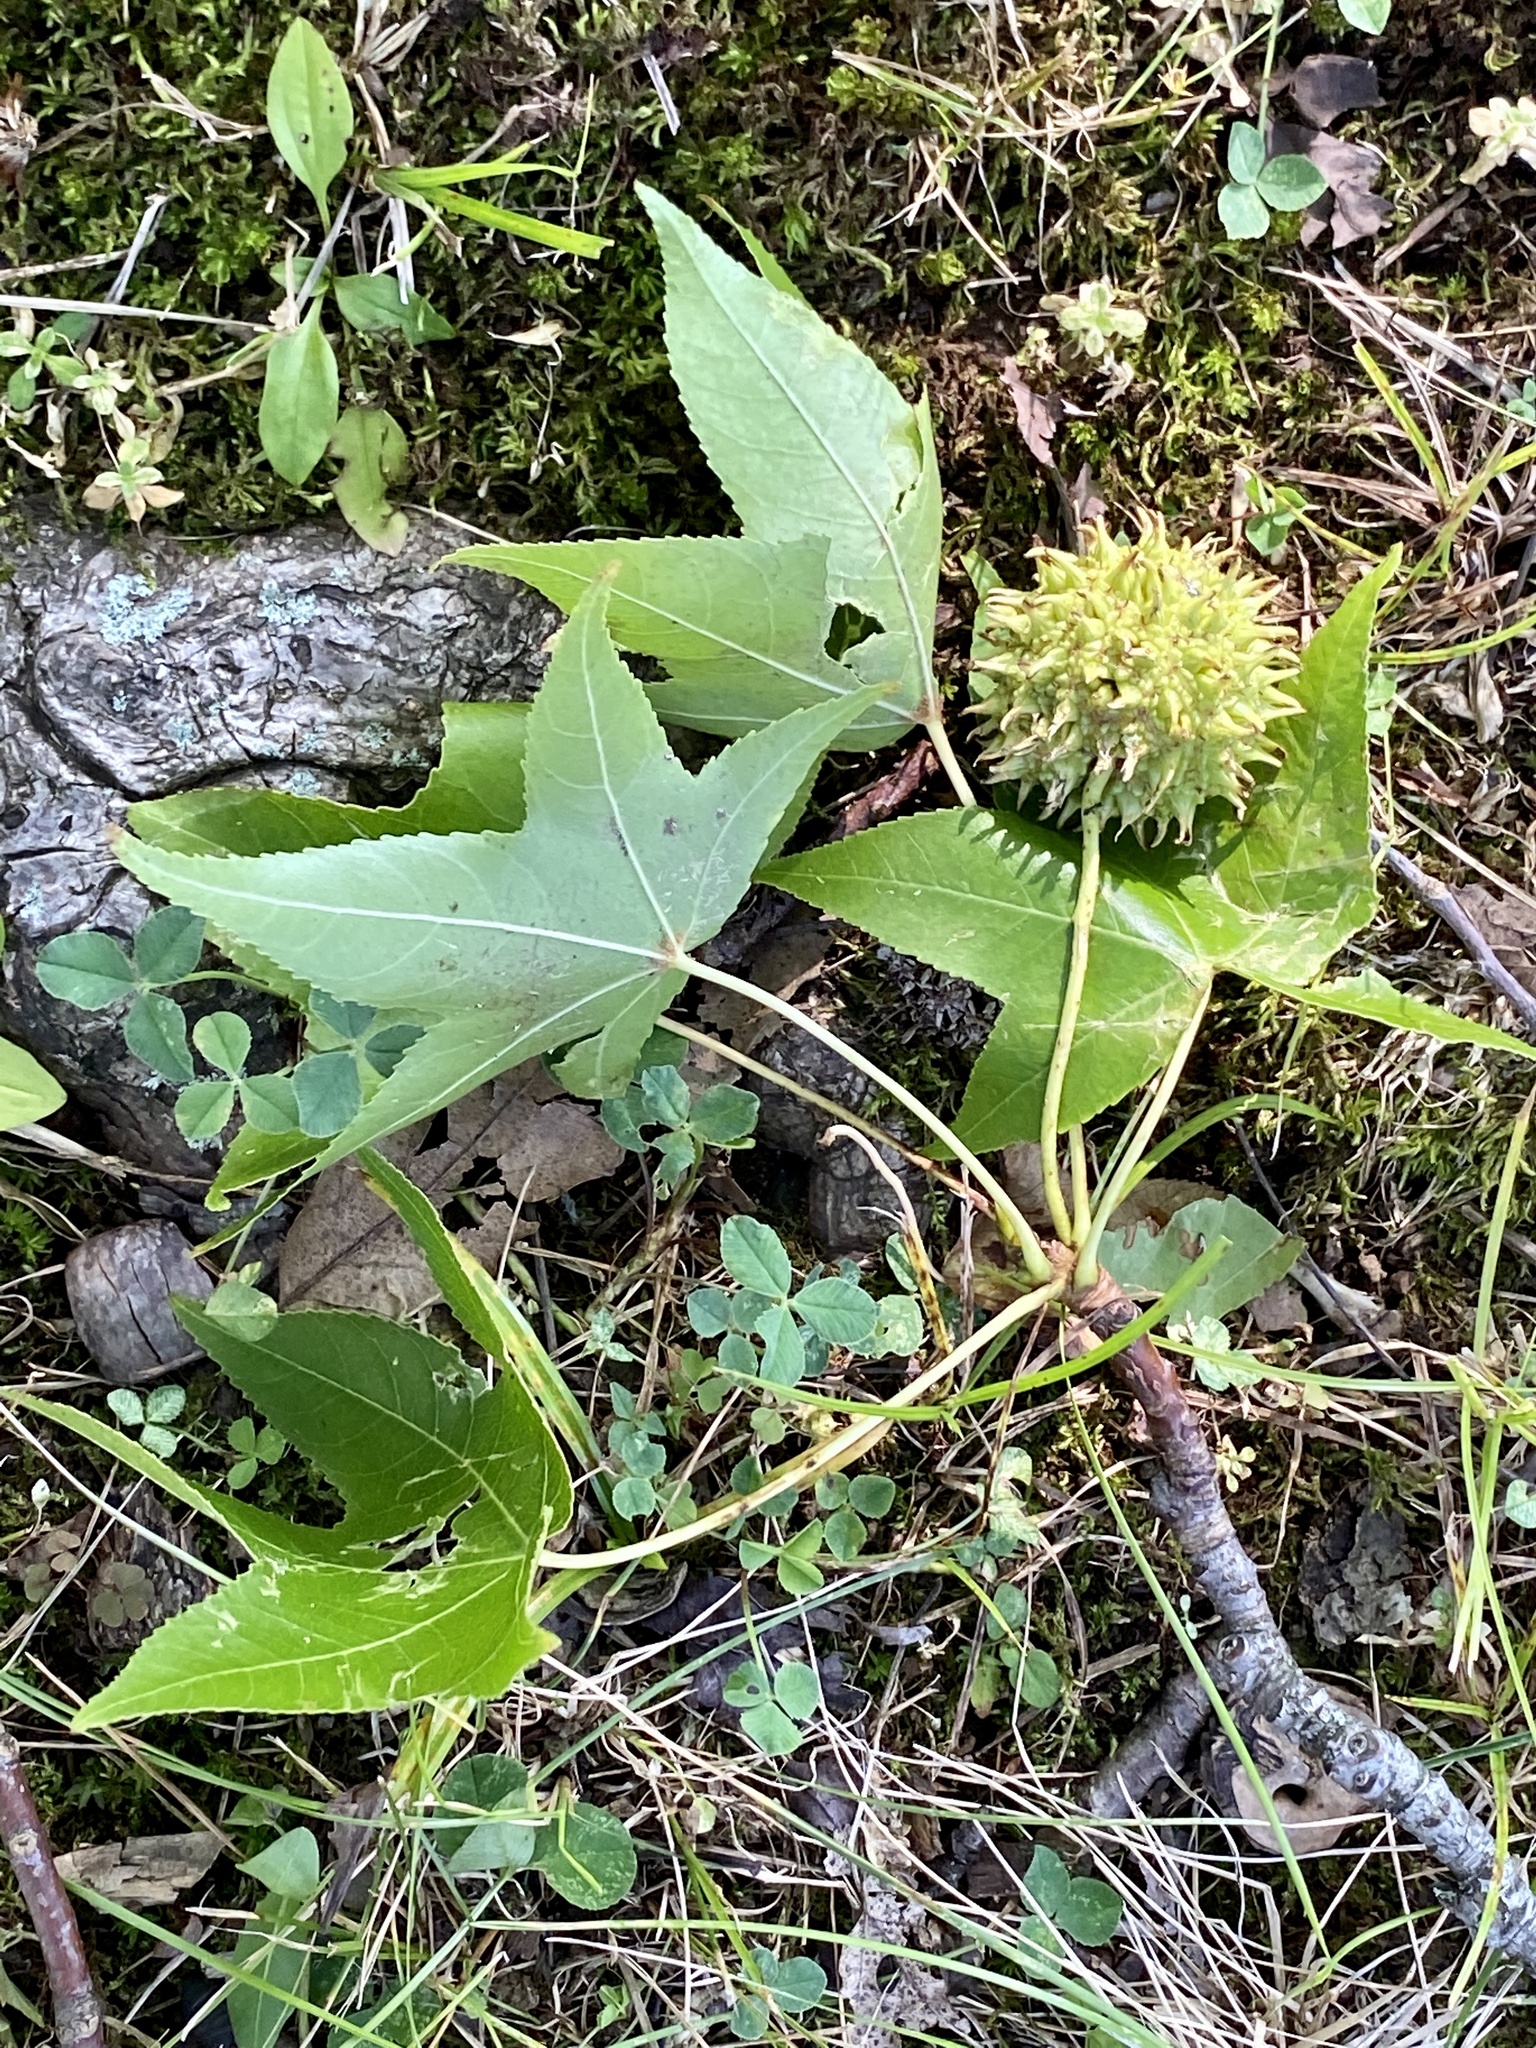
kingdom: Plantae
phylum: Tracheophyta
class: Magnoliopsida
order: Saxifragales
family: Altingiaceae
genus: Liquidambar
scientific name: Liquidambar styraciflua
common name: Sweet gum
